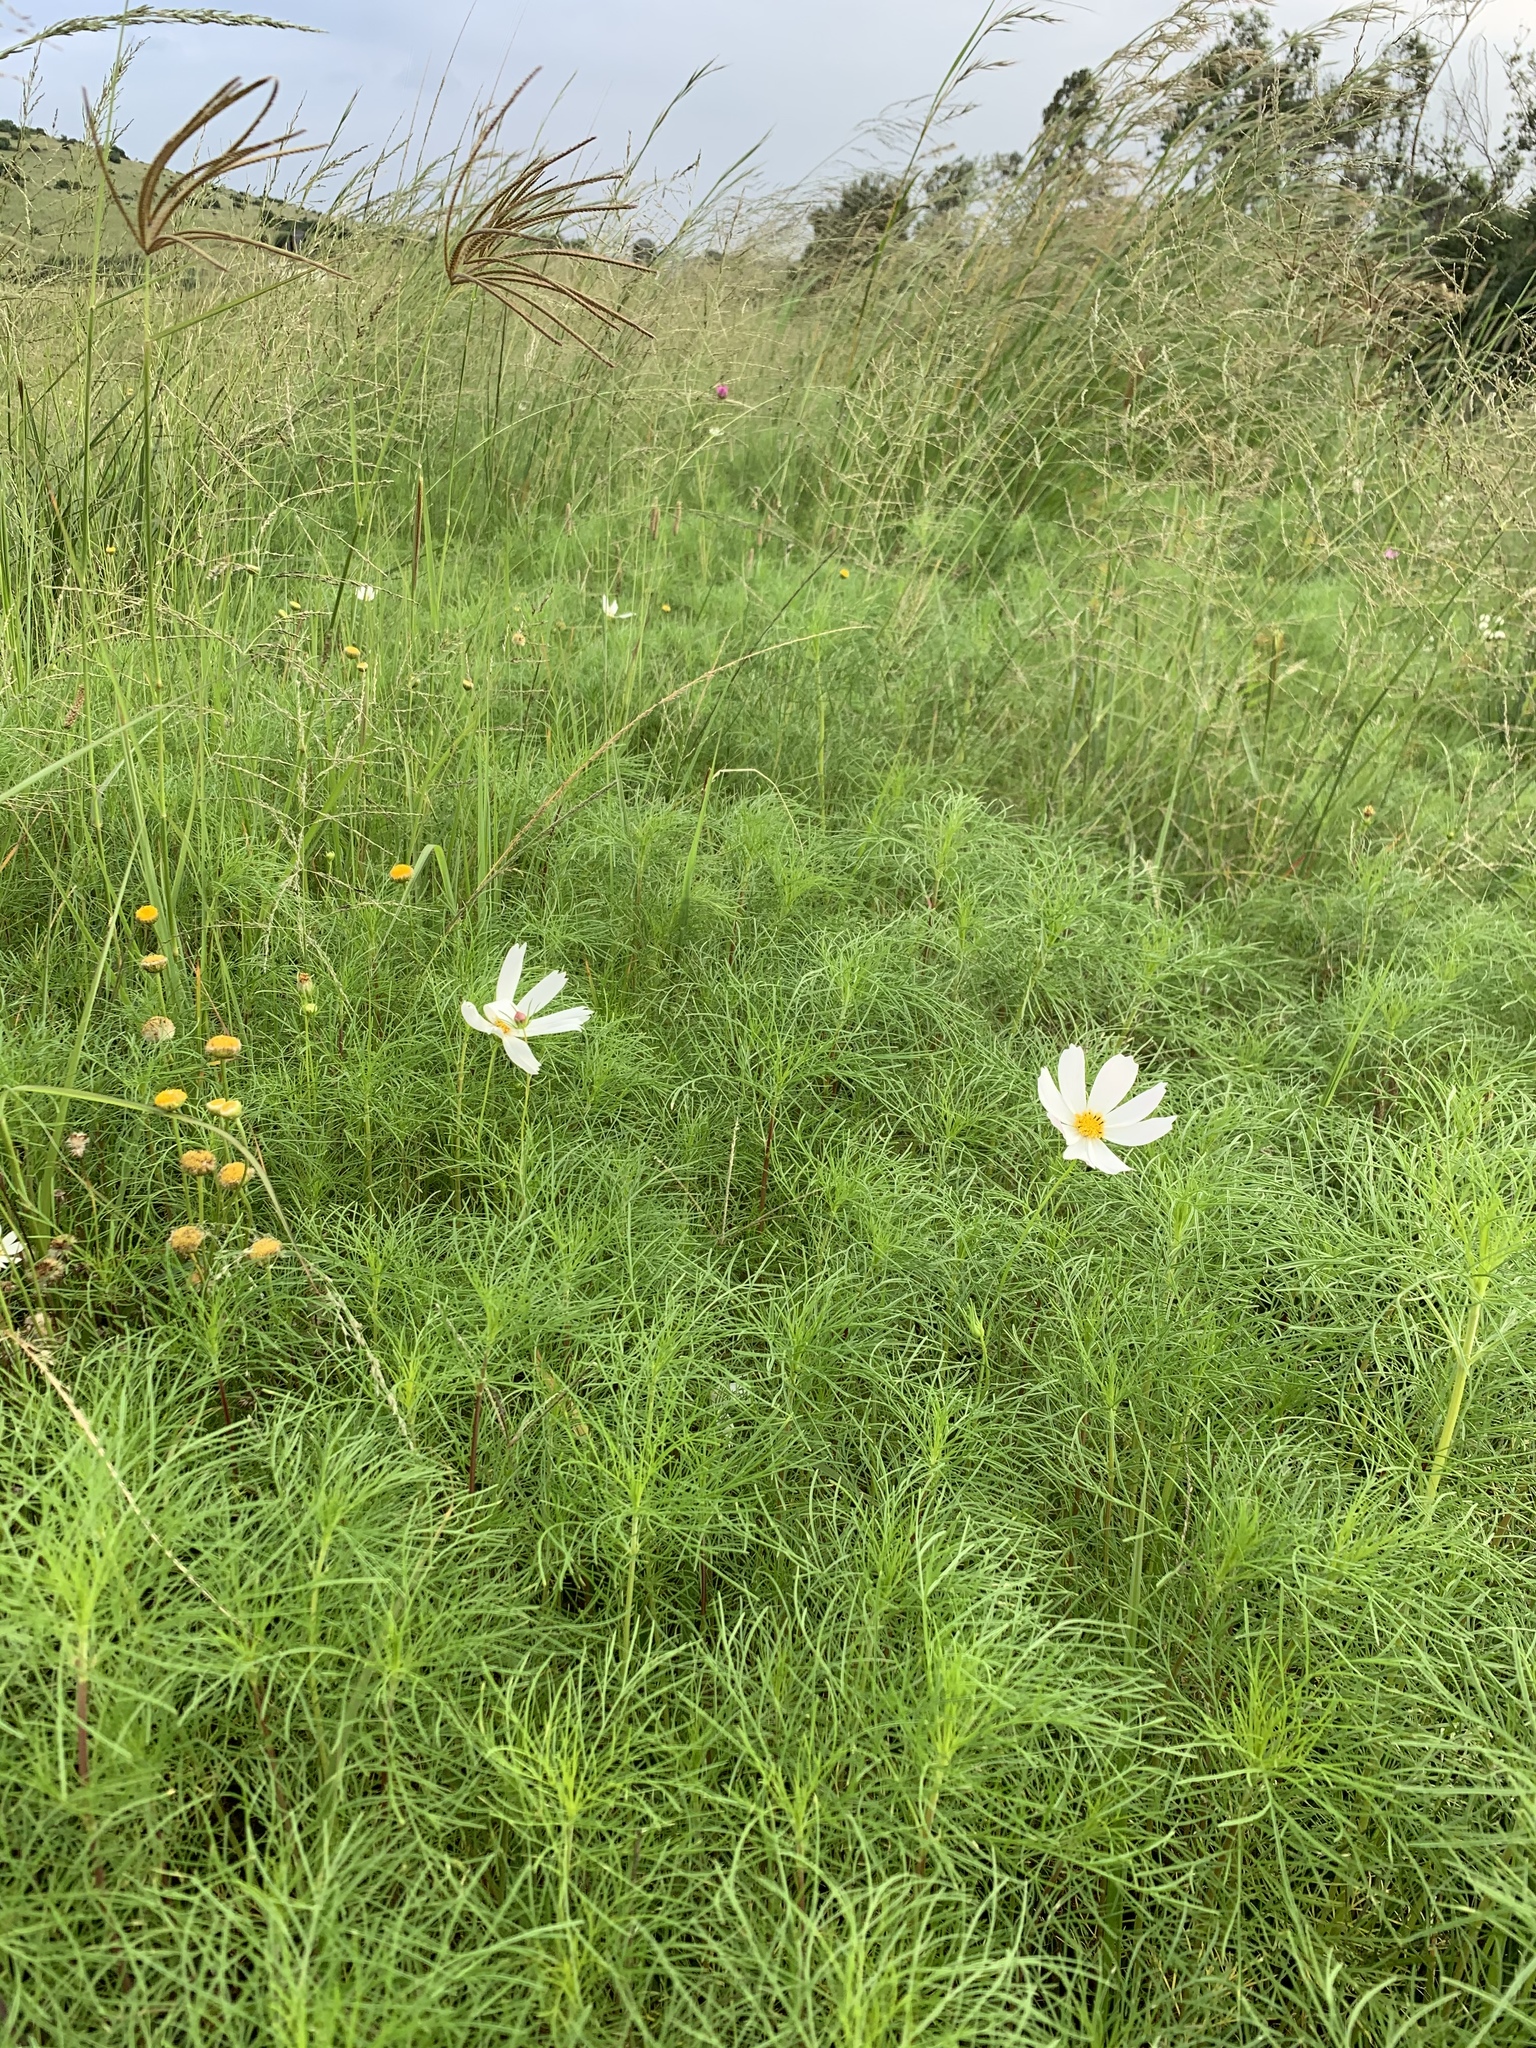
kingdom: Plantae
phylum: Tracheophyta
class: Magnoliopsida
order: Asterales
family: Asteraceae
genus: Cosmos
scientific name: Cosmos bipinnatus
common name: Garden cosmos
